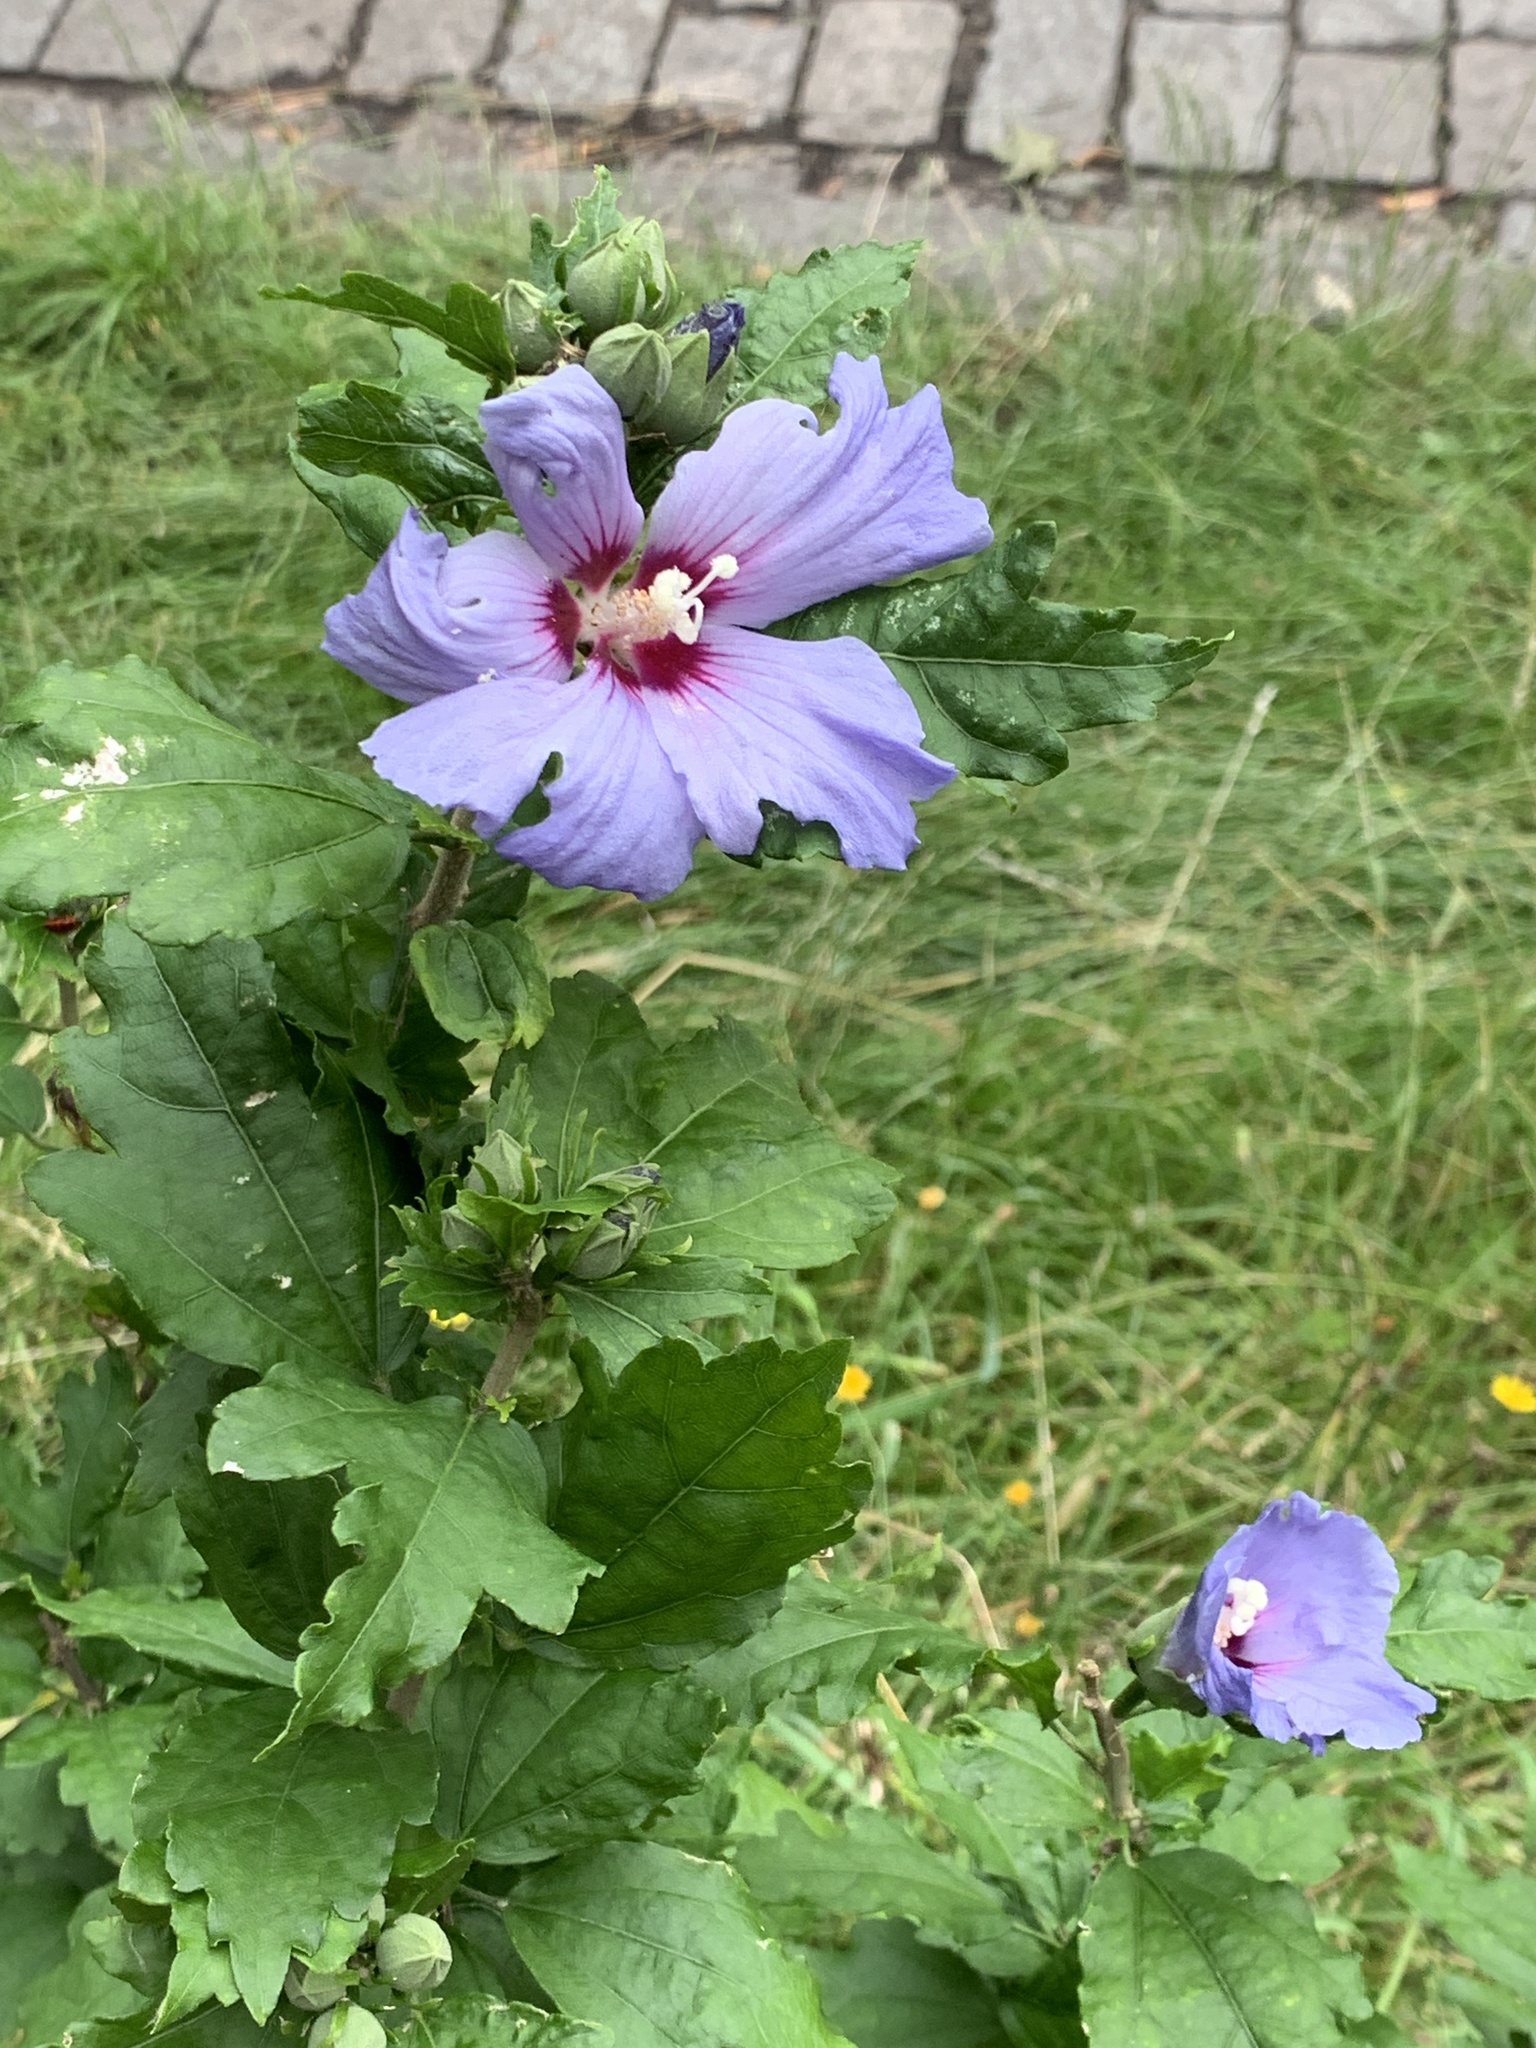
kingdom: Plantae
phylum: Tracheophyta
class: Magnoliopsida
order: Malvales
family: Malvaceae
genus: Hibiscus
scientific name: Hibiscus syriacus
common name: Syrian ketmia
